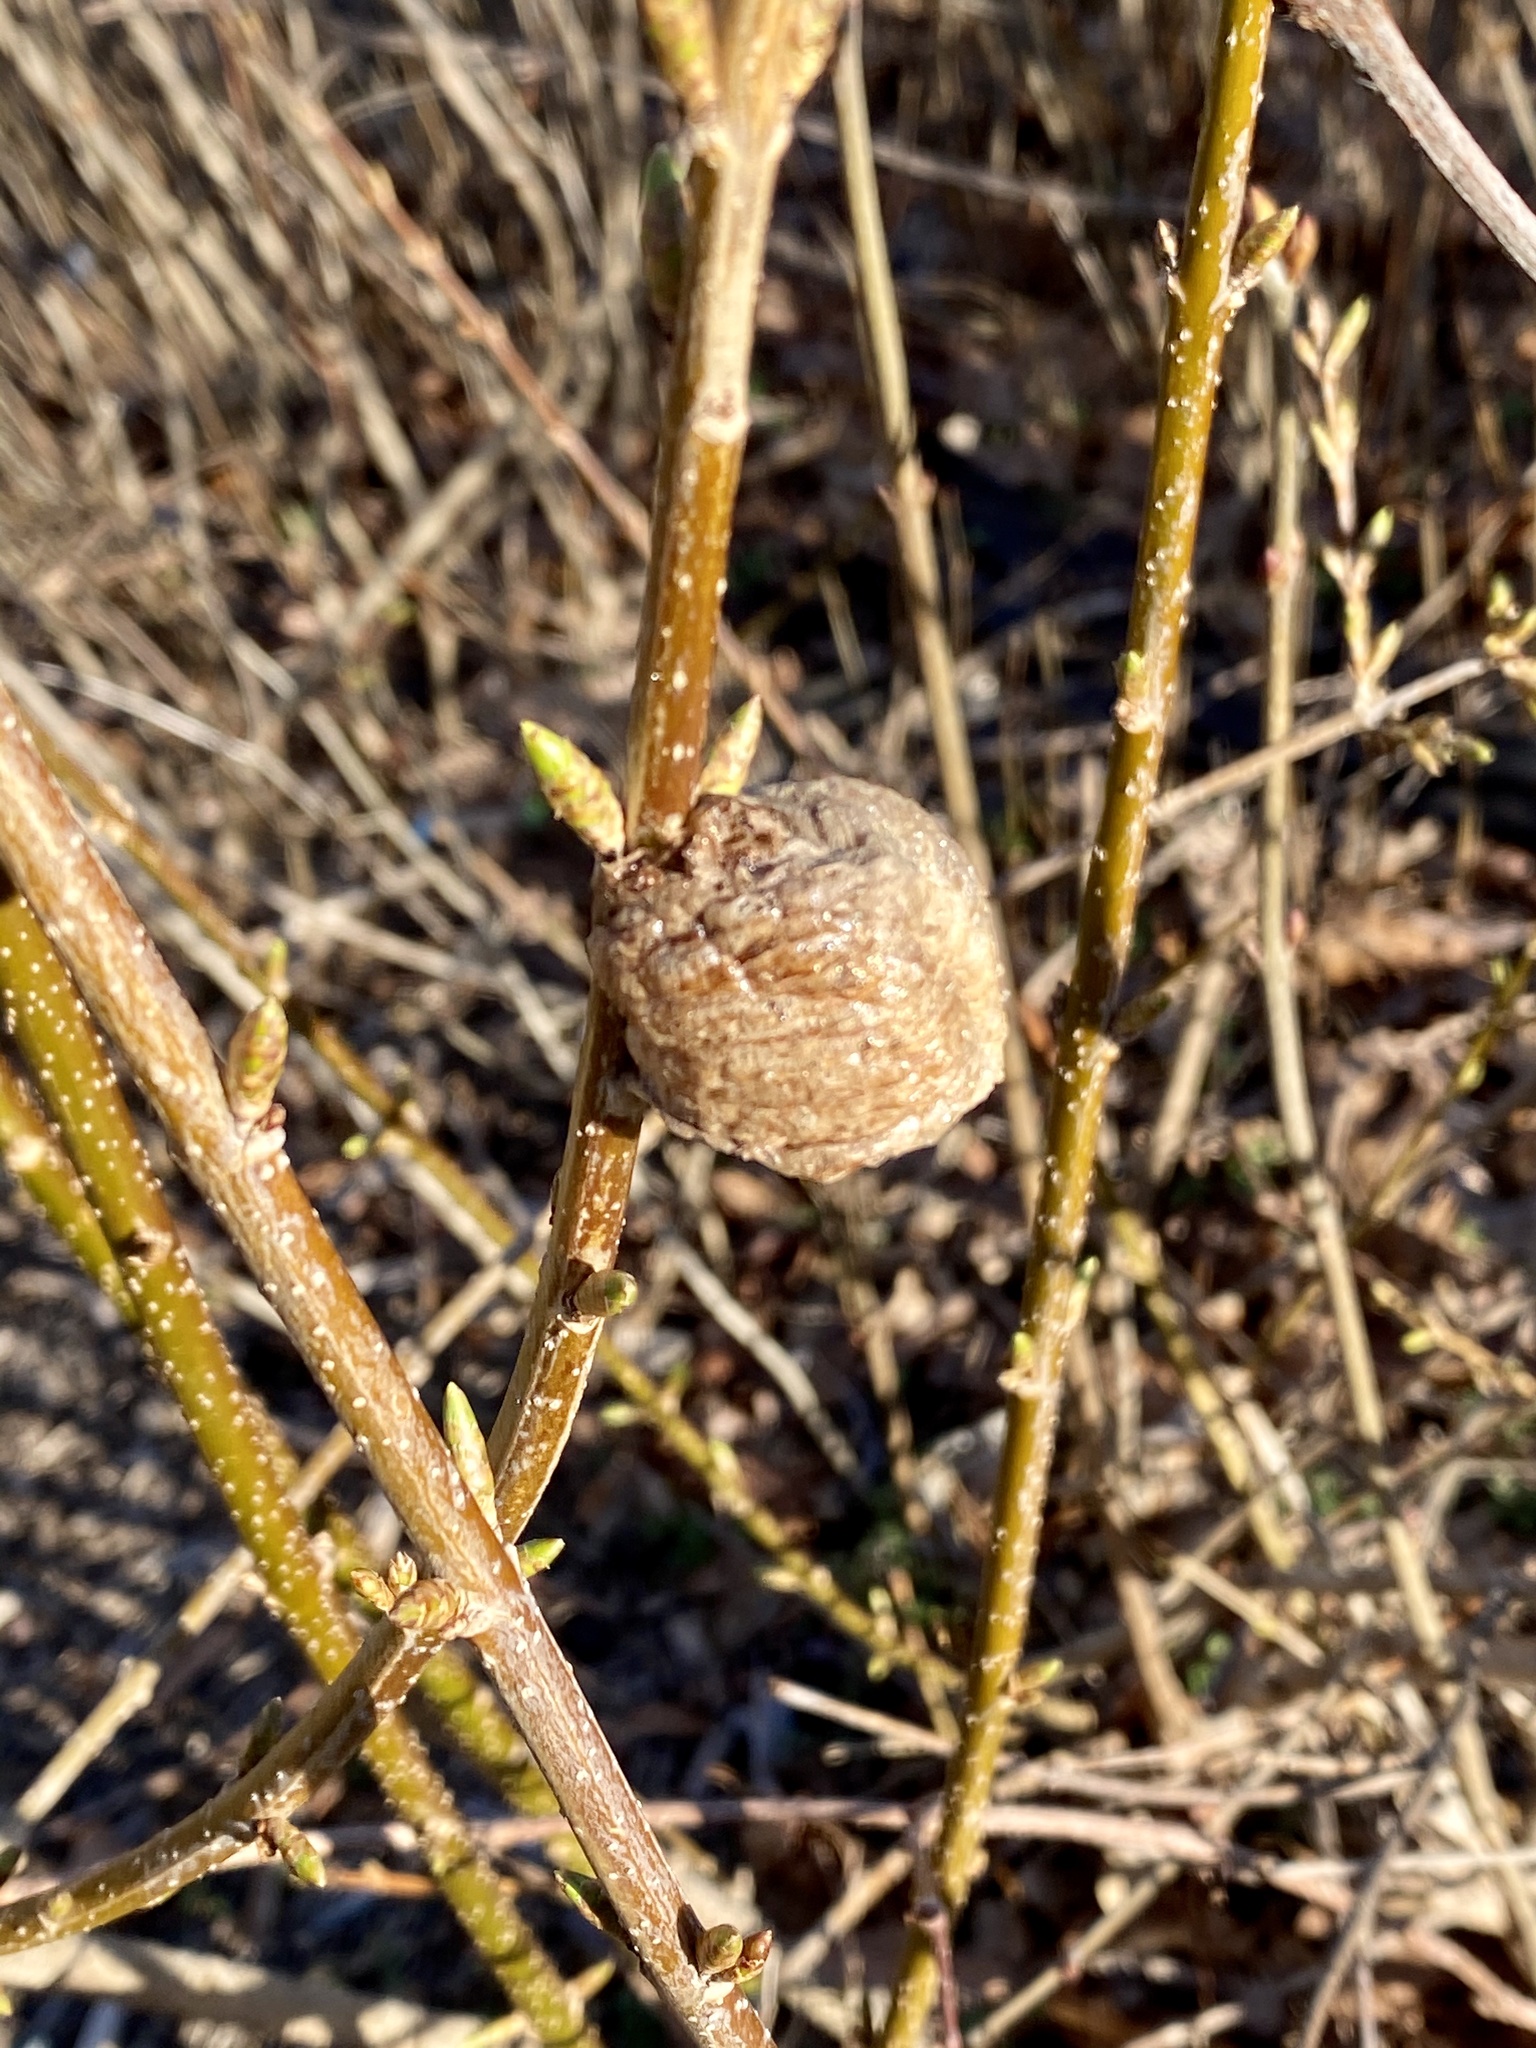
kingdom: Animalia
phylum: Arthropoda
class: Insecta
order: Mantodea
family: Mantidae
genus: Tenodera
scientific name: Tenodera sinensis
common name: Chinese mantis
